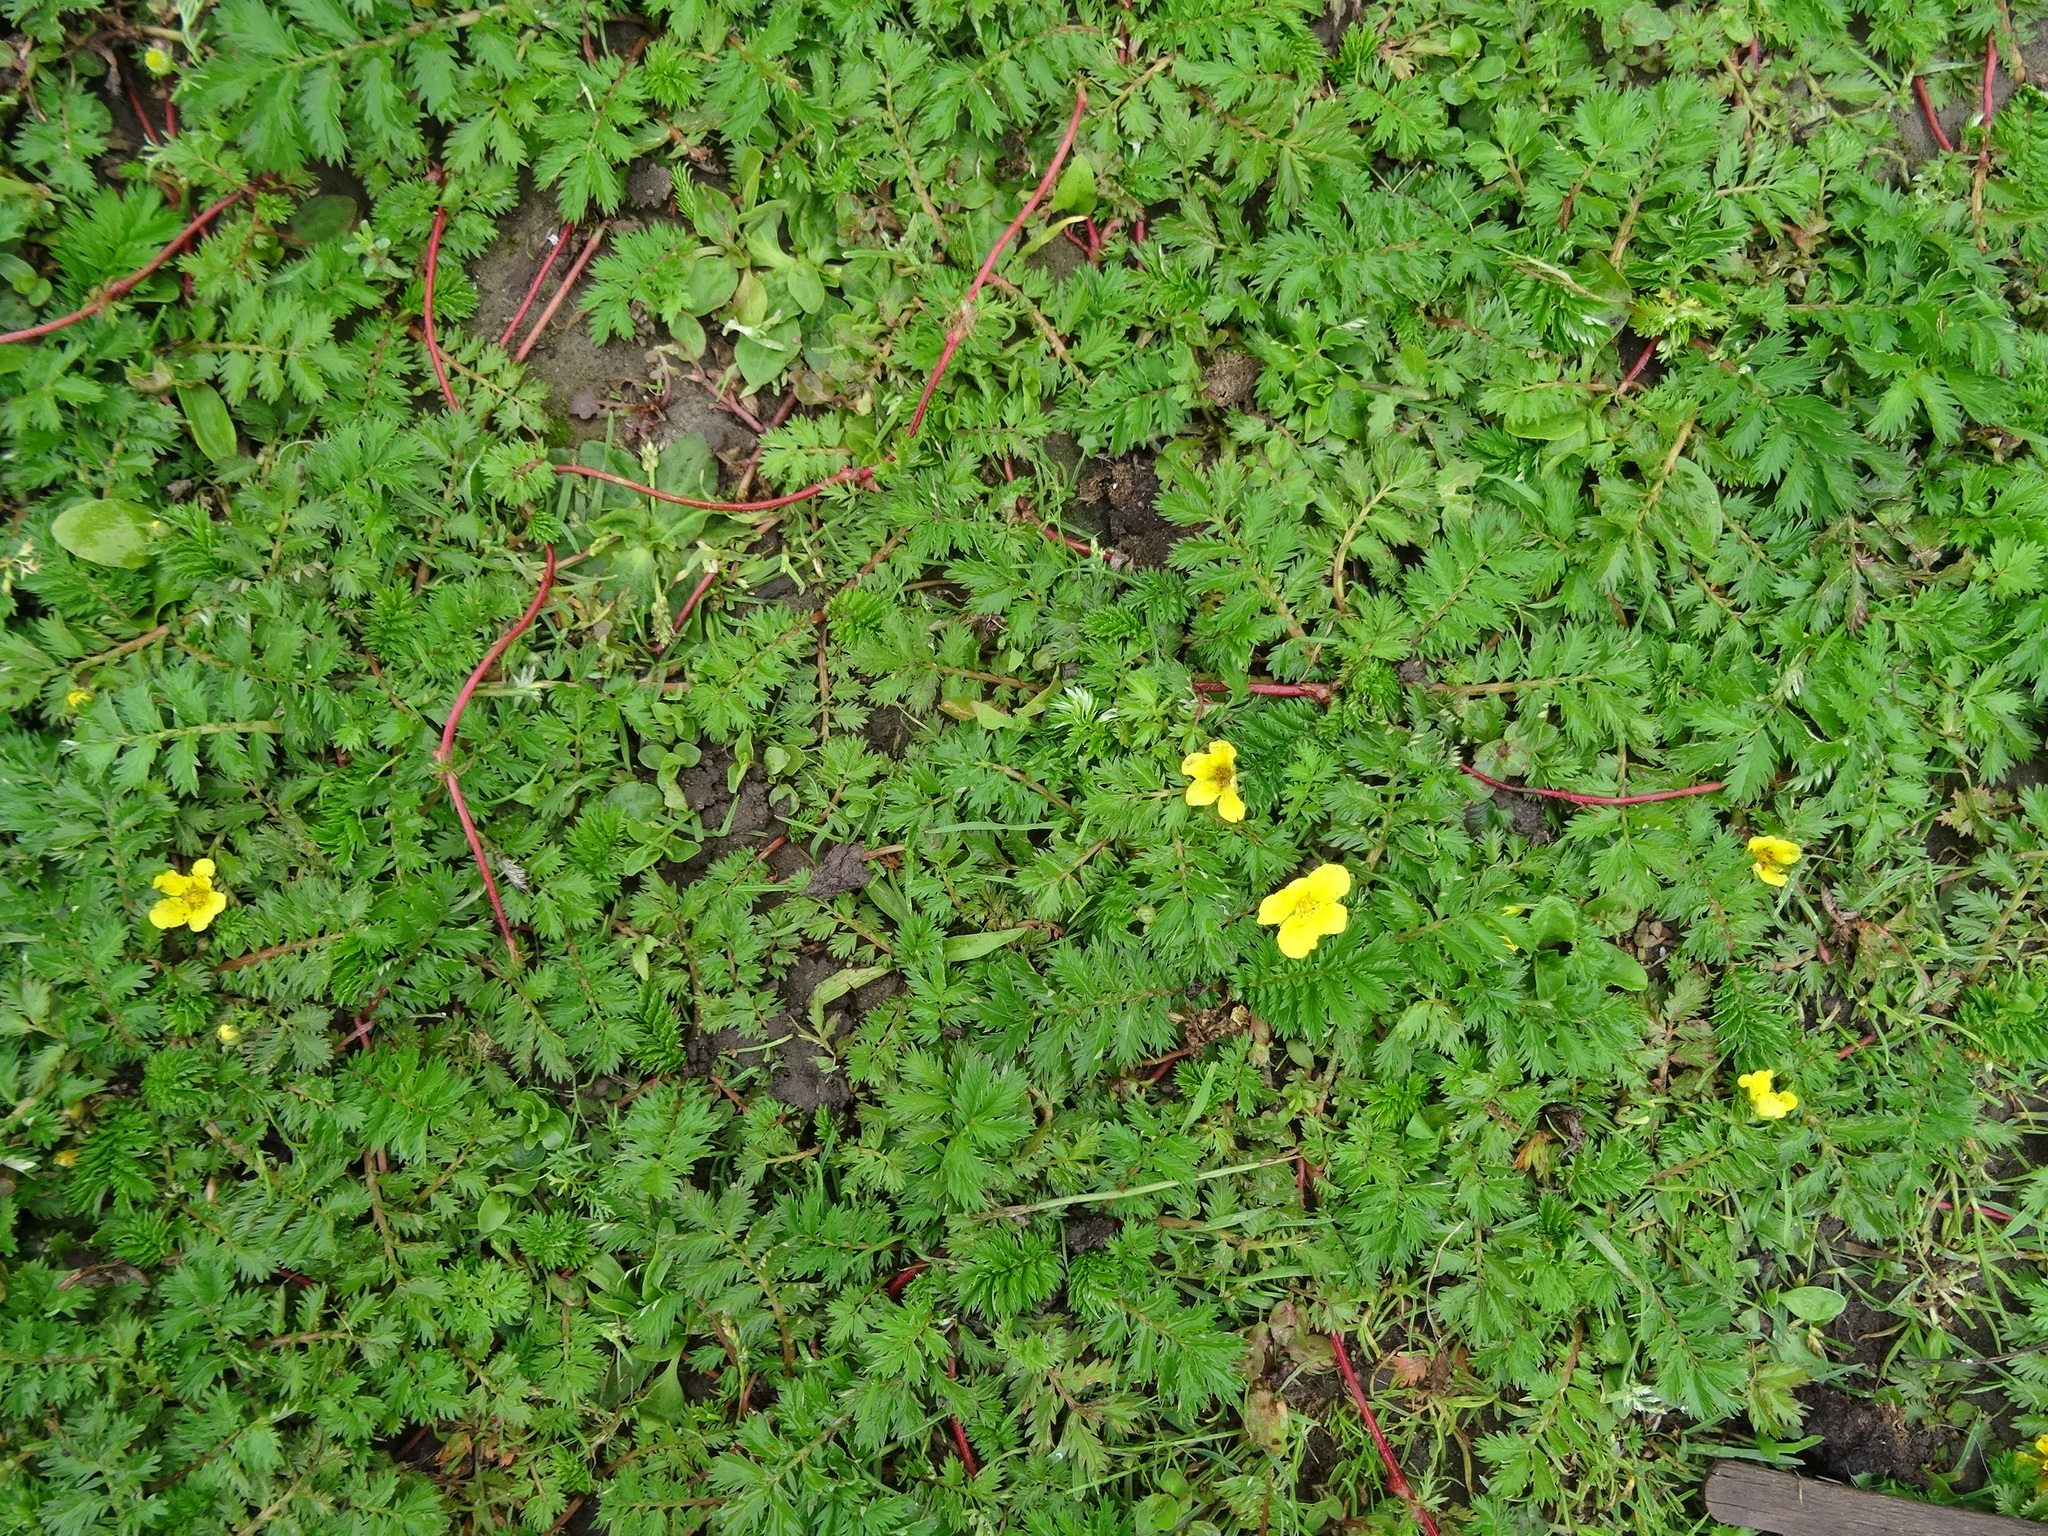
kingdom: Plantae
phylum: Tracheophyta
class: Magnoliopsida
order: Rosales
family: Rosaceae
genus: Argentina
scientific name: Argentina anserina
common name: Common silverweed
